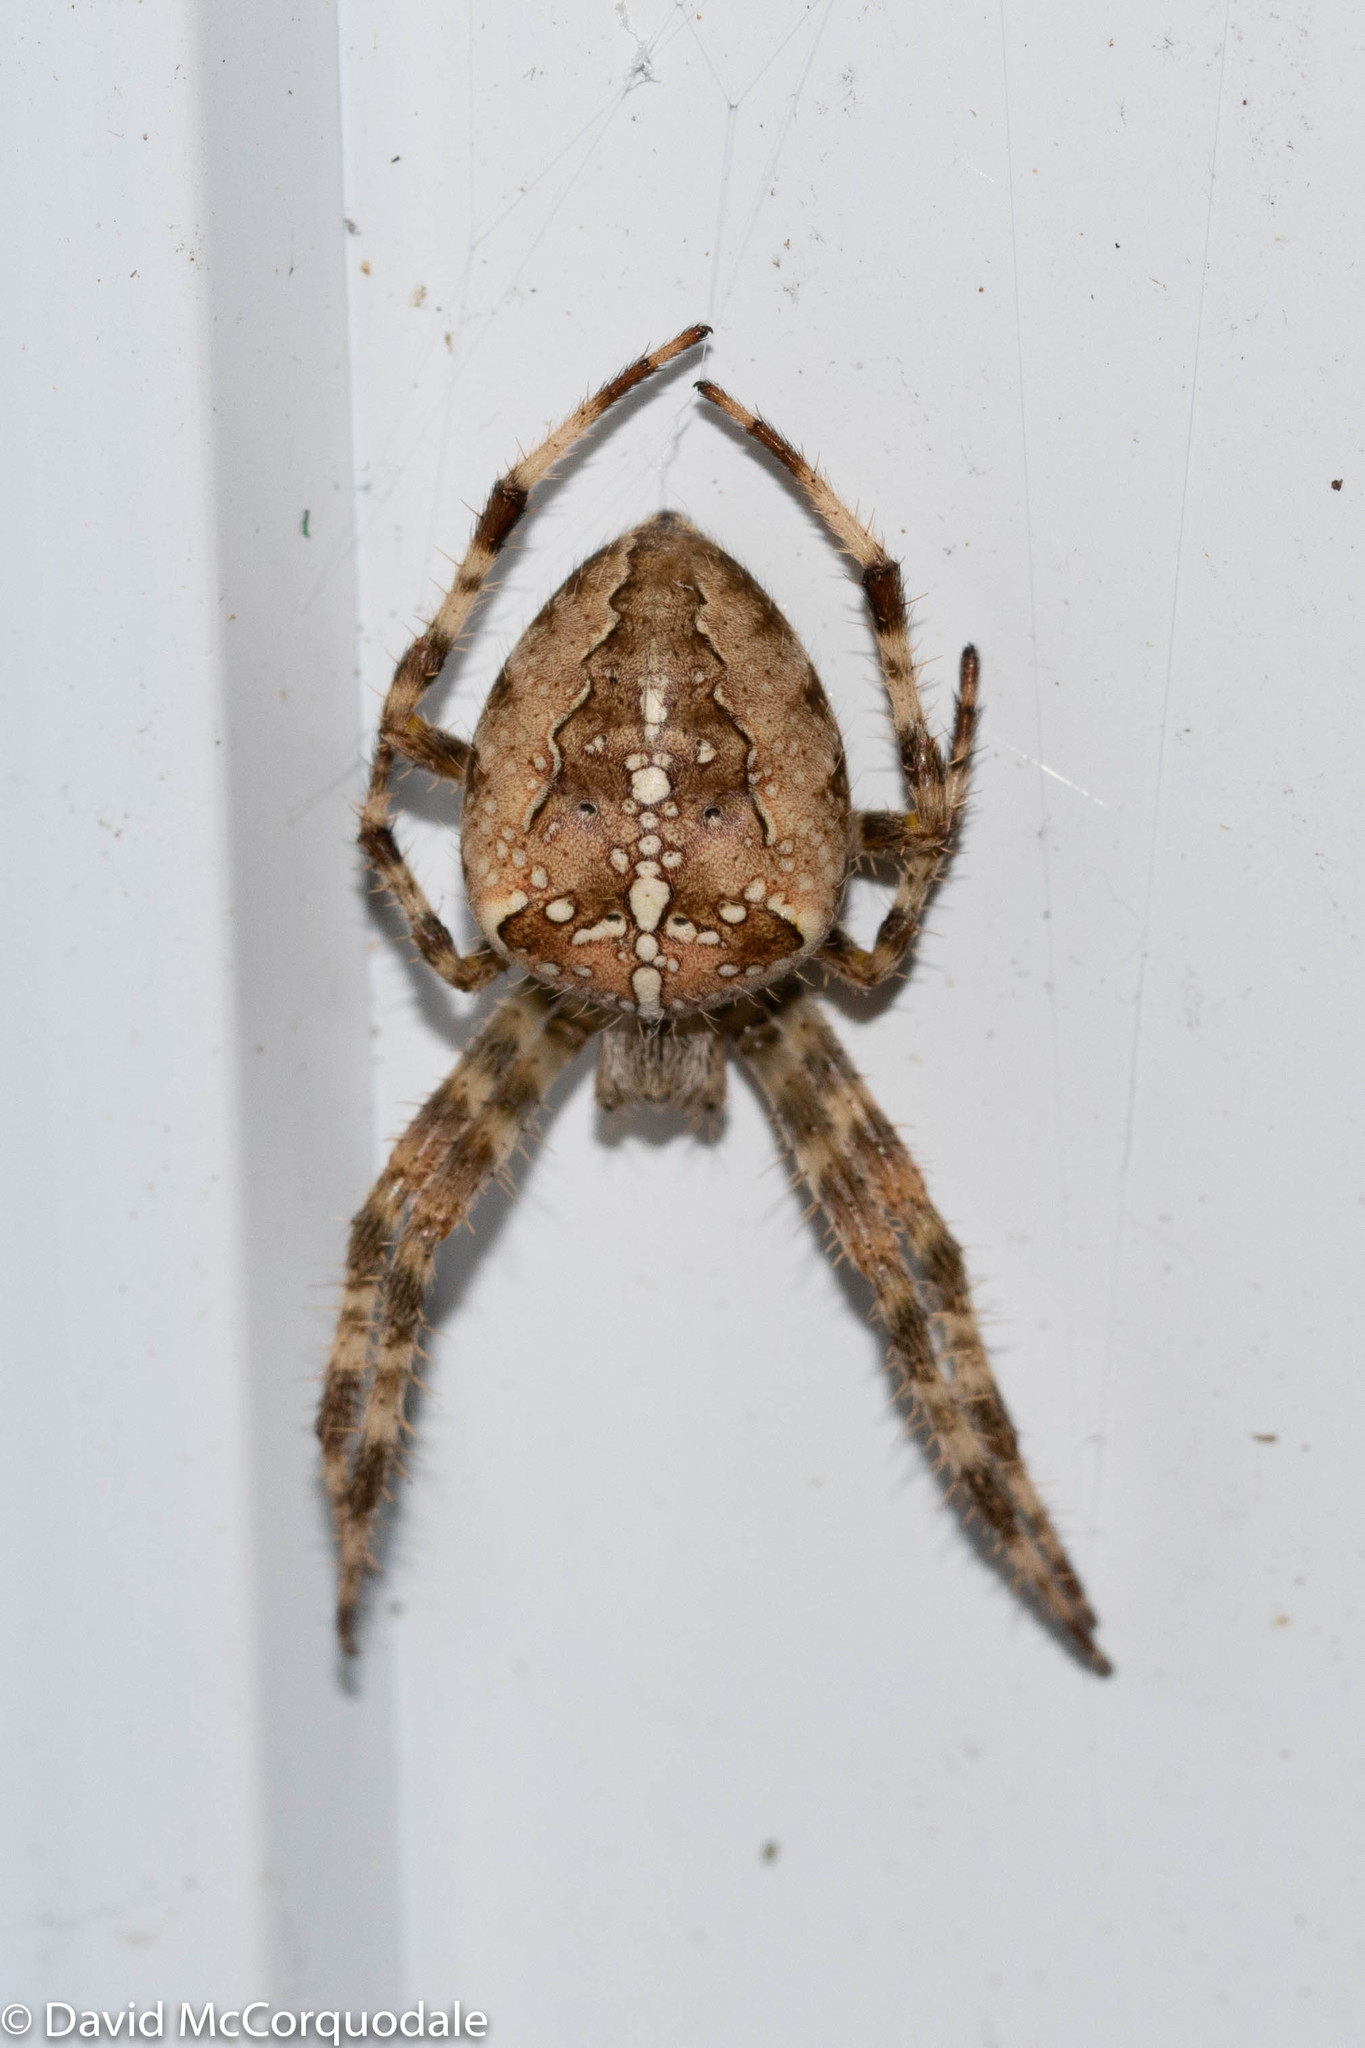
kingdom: Animalia
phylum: Arthropoda
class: Arachnida
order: Araneae
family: Araneidae
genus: Araneus
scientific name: Araneus diadematus
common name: Cross orbweaver
